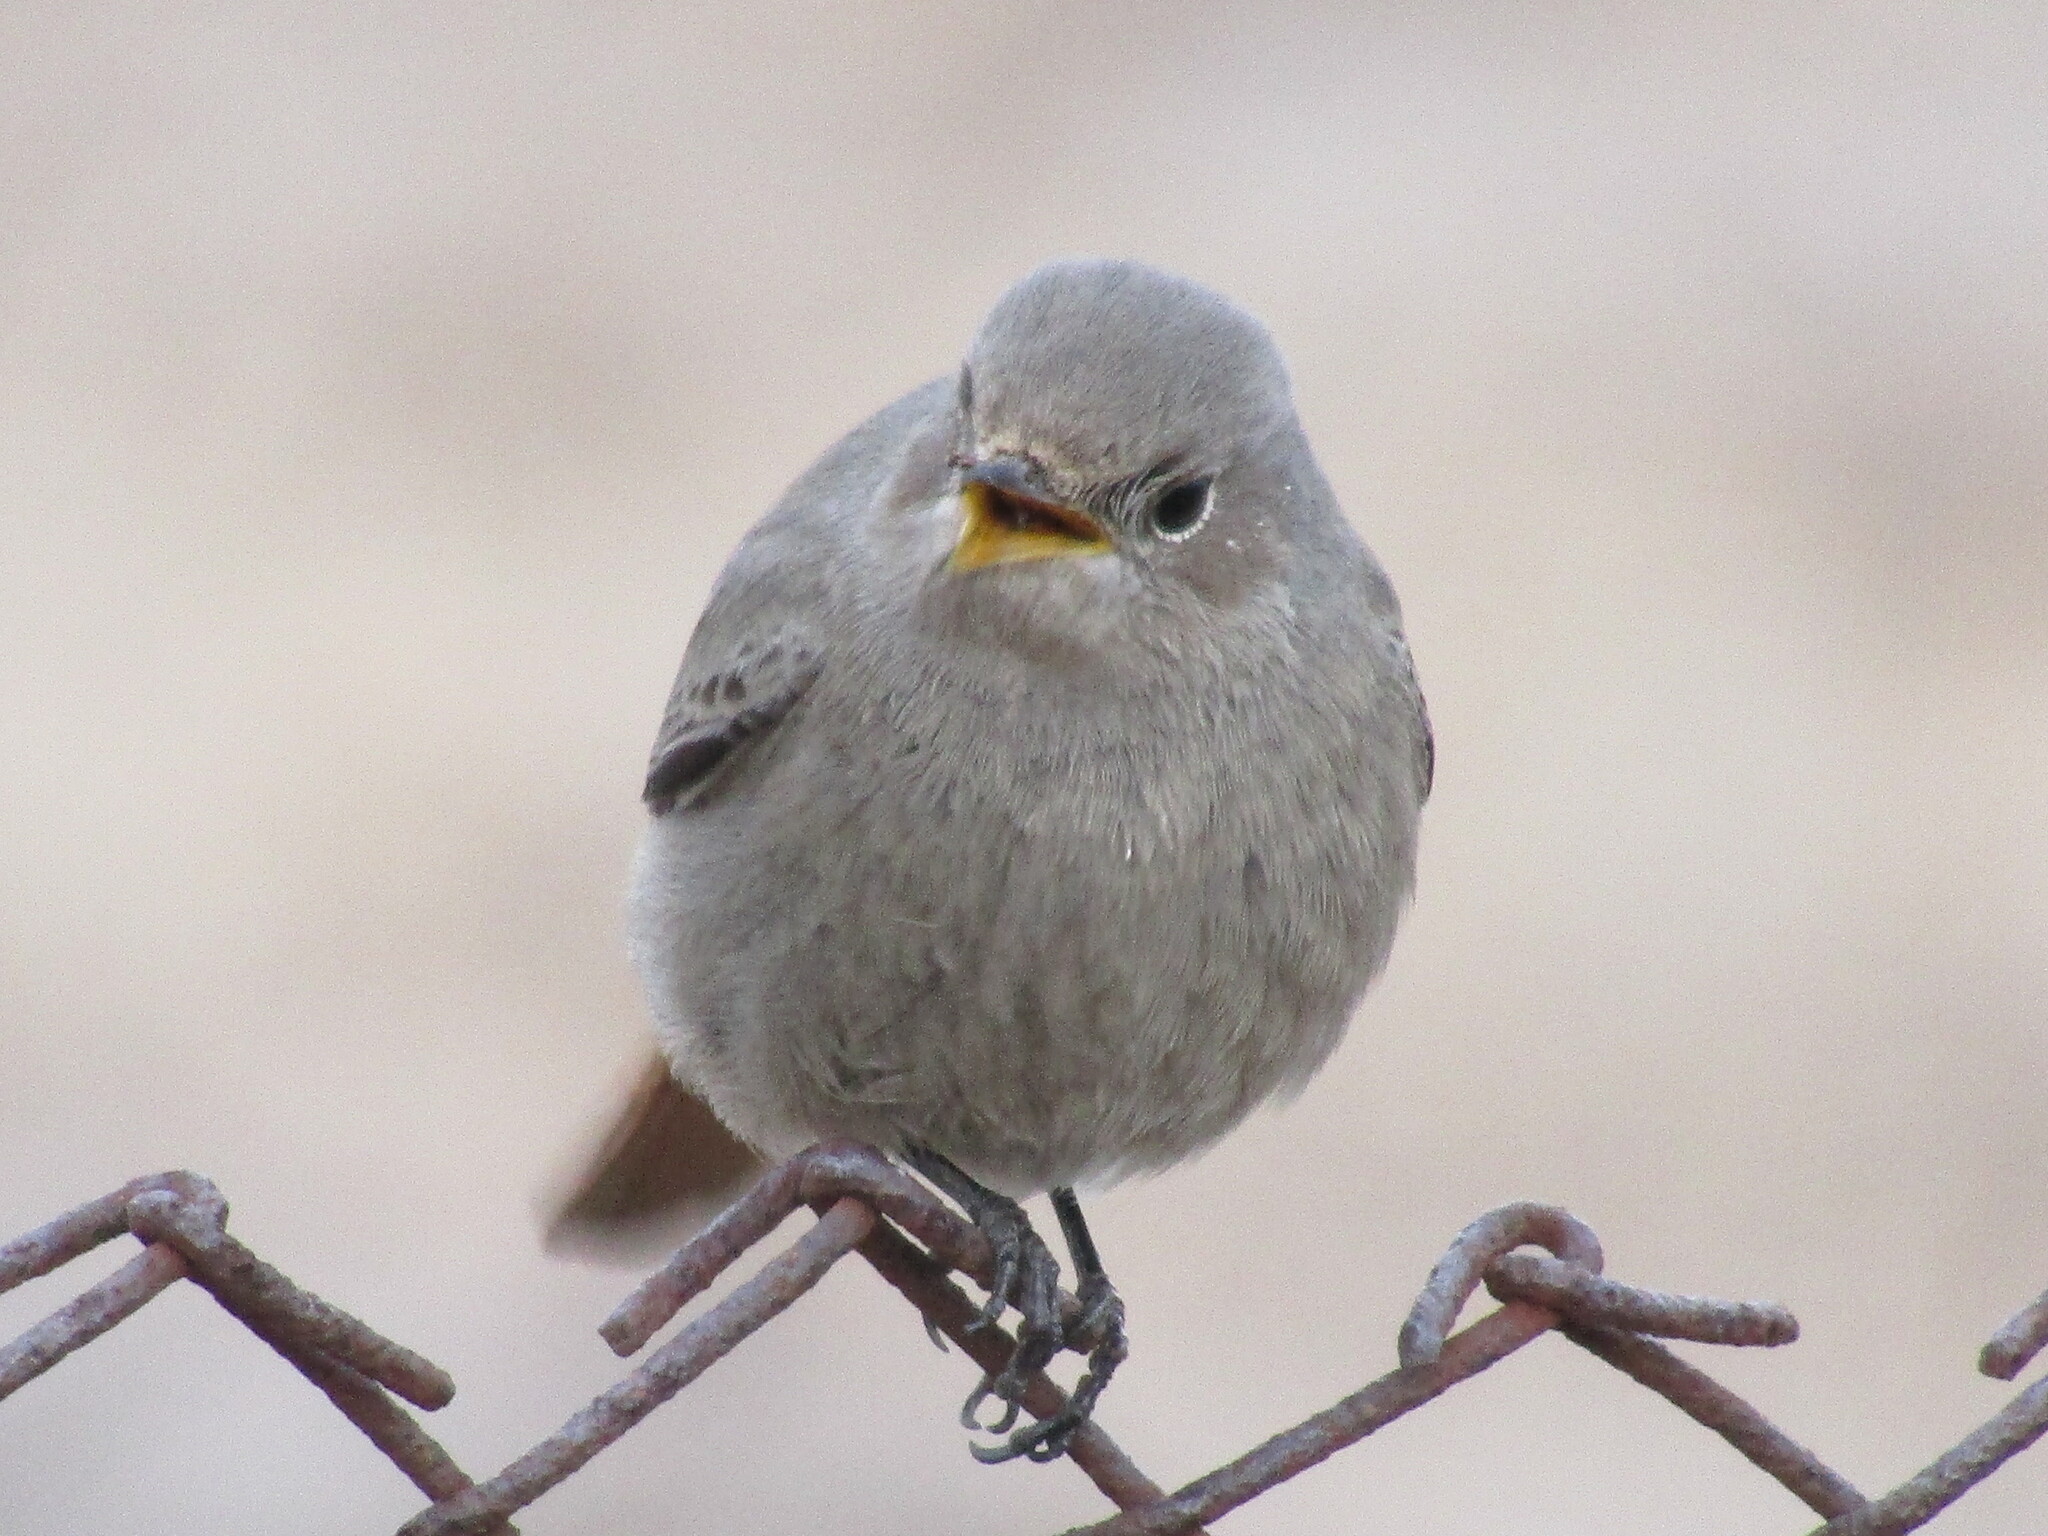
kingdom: Animalia
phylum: Chordata
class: Aves
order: Passeriformes
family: Muscicapidae
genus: Phoenicurus
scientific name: Phoenicurus ochruros
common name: Black redstart
